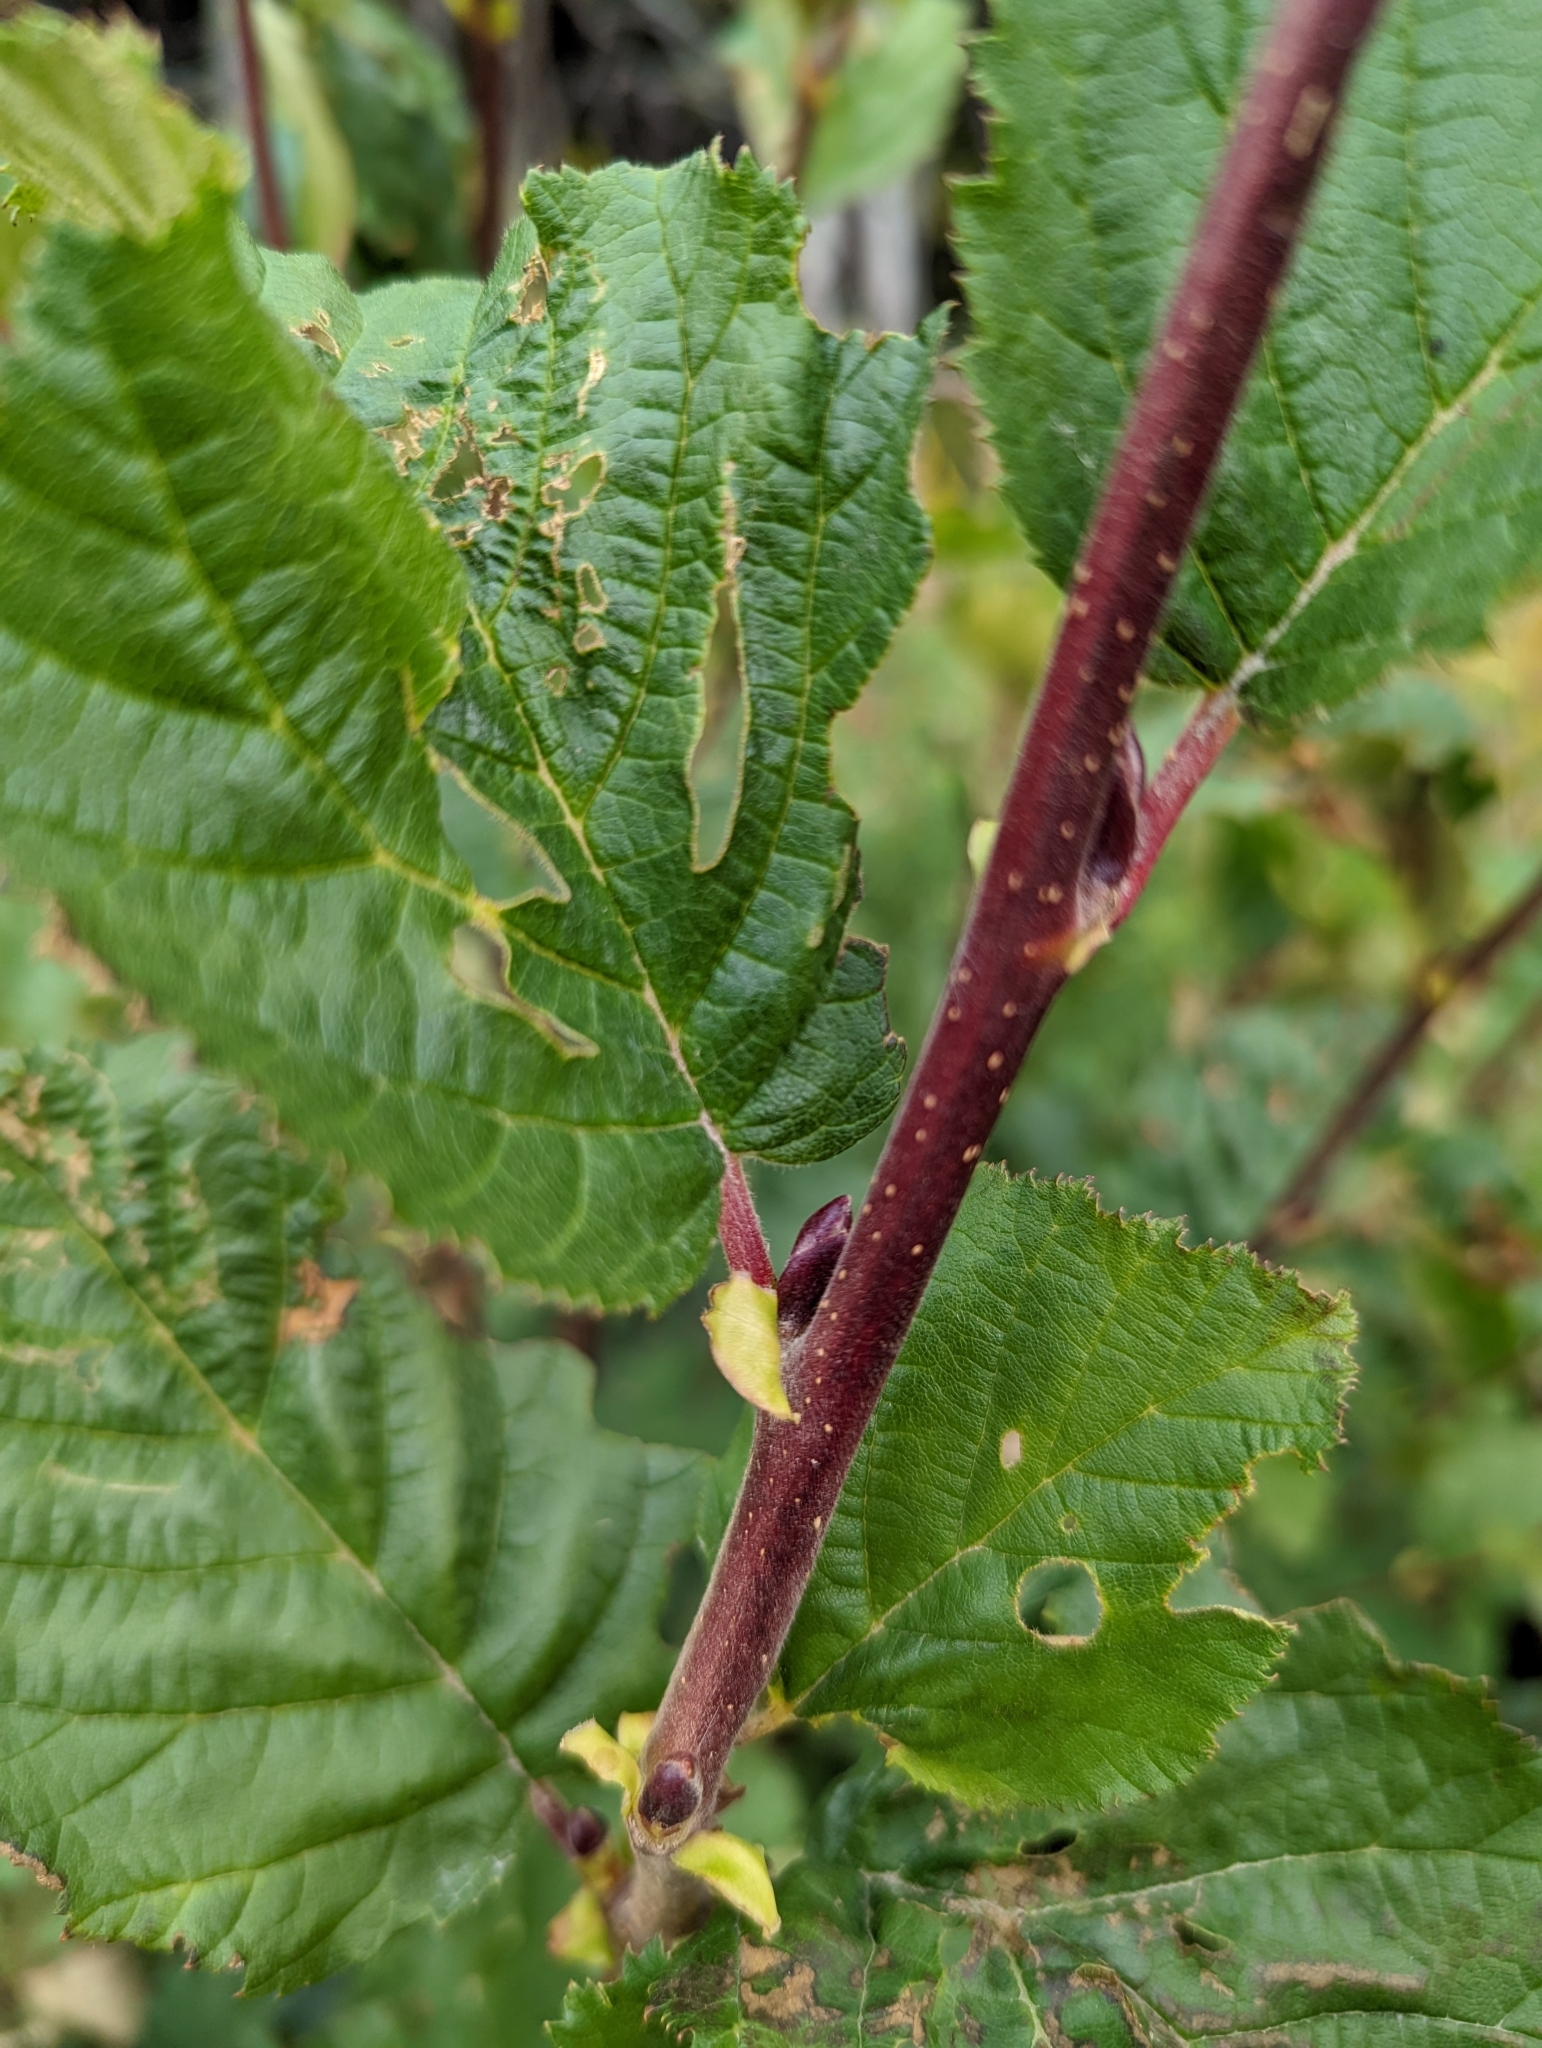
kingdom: Plantae
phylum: Tracheophyta
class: Magnoliopsida
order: Fagales
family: Betulaceae
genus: Alnus
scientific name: Alnus incana
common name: Grey alder
